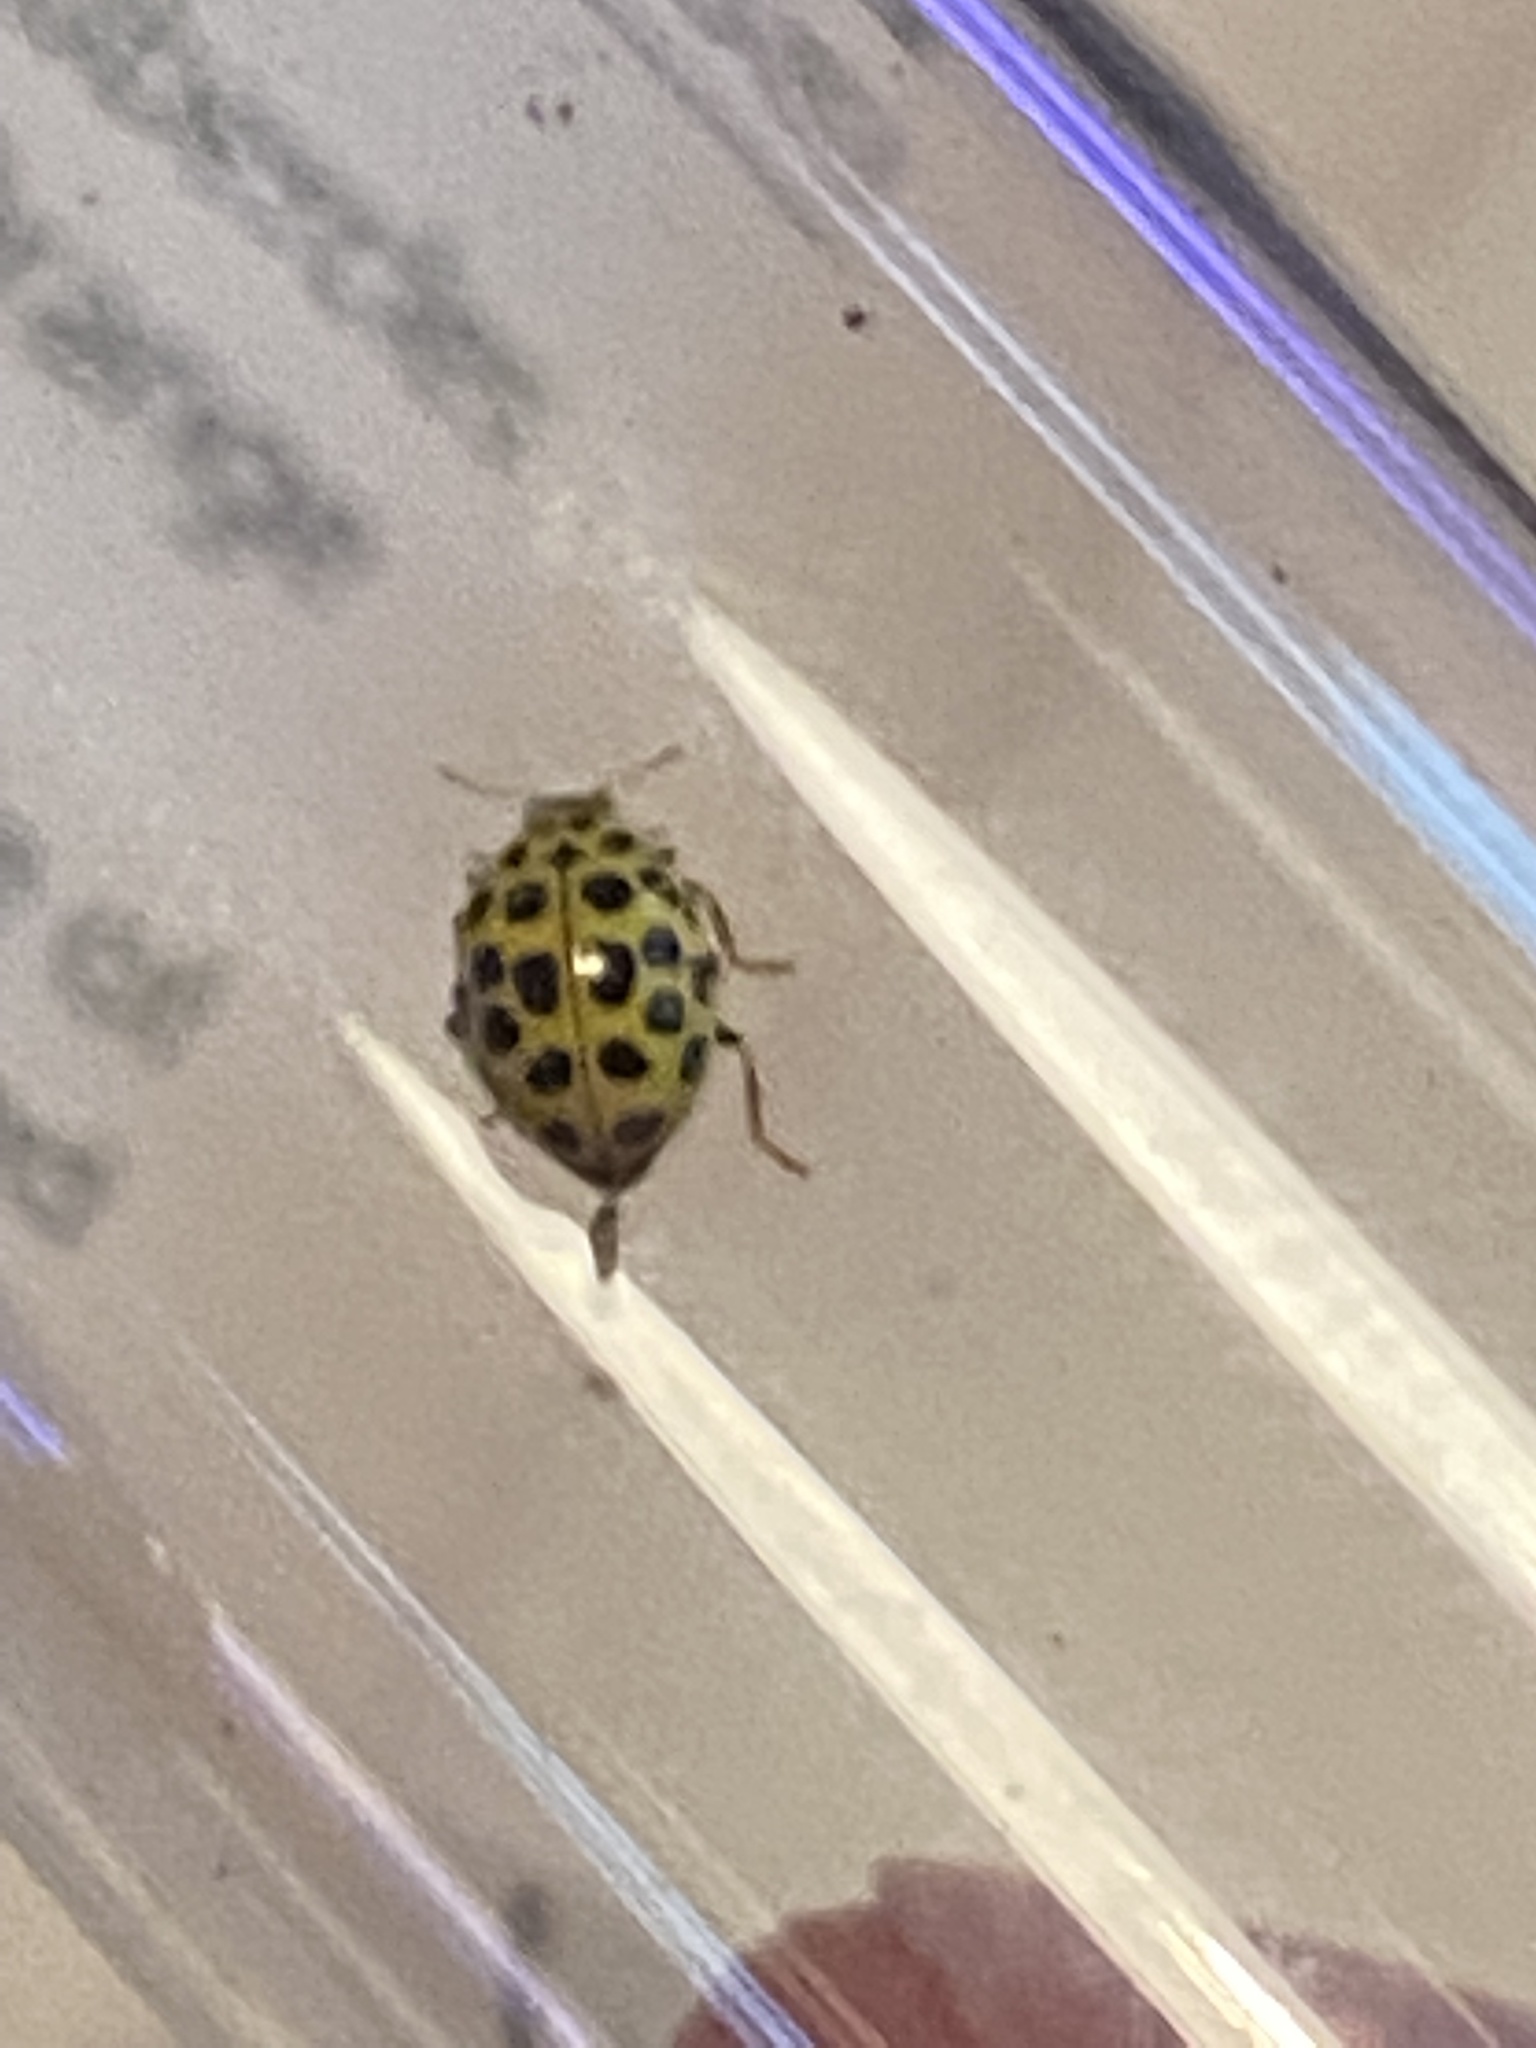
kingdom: Animalia
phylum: Arthropoda
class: Insecta
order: Coleoptera
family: Coccinellidae
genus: Psyllobora
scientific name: Psyllobora vigintiduopunctata
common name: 22-spot ladybird
